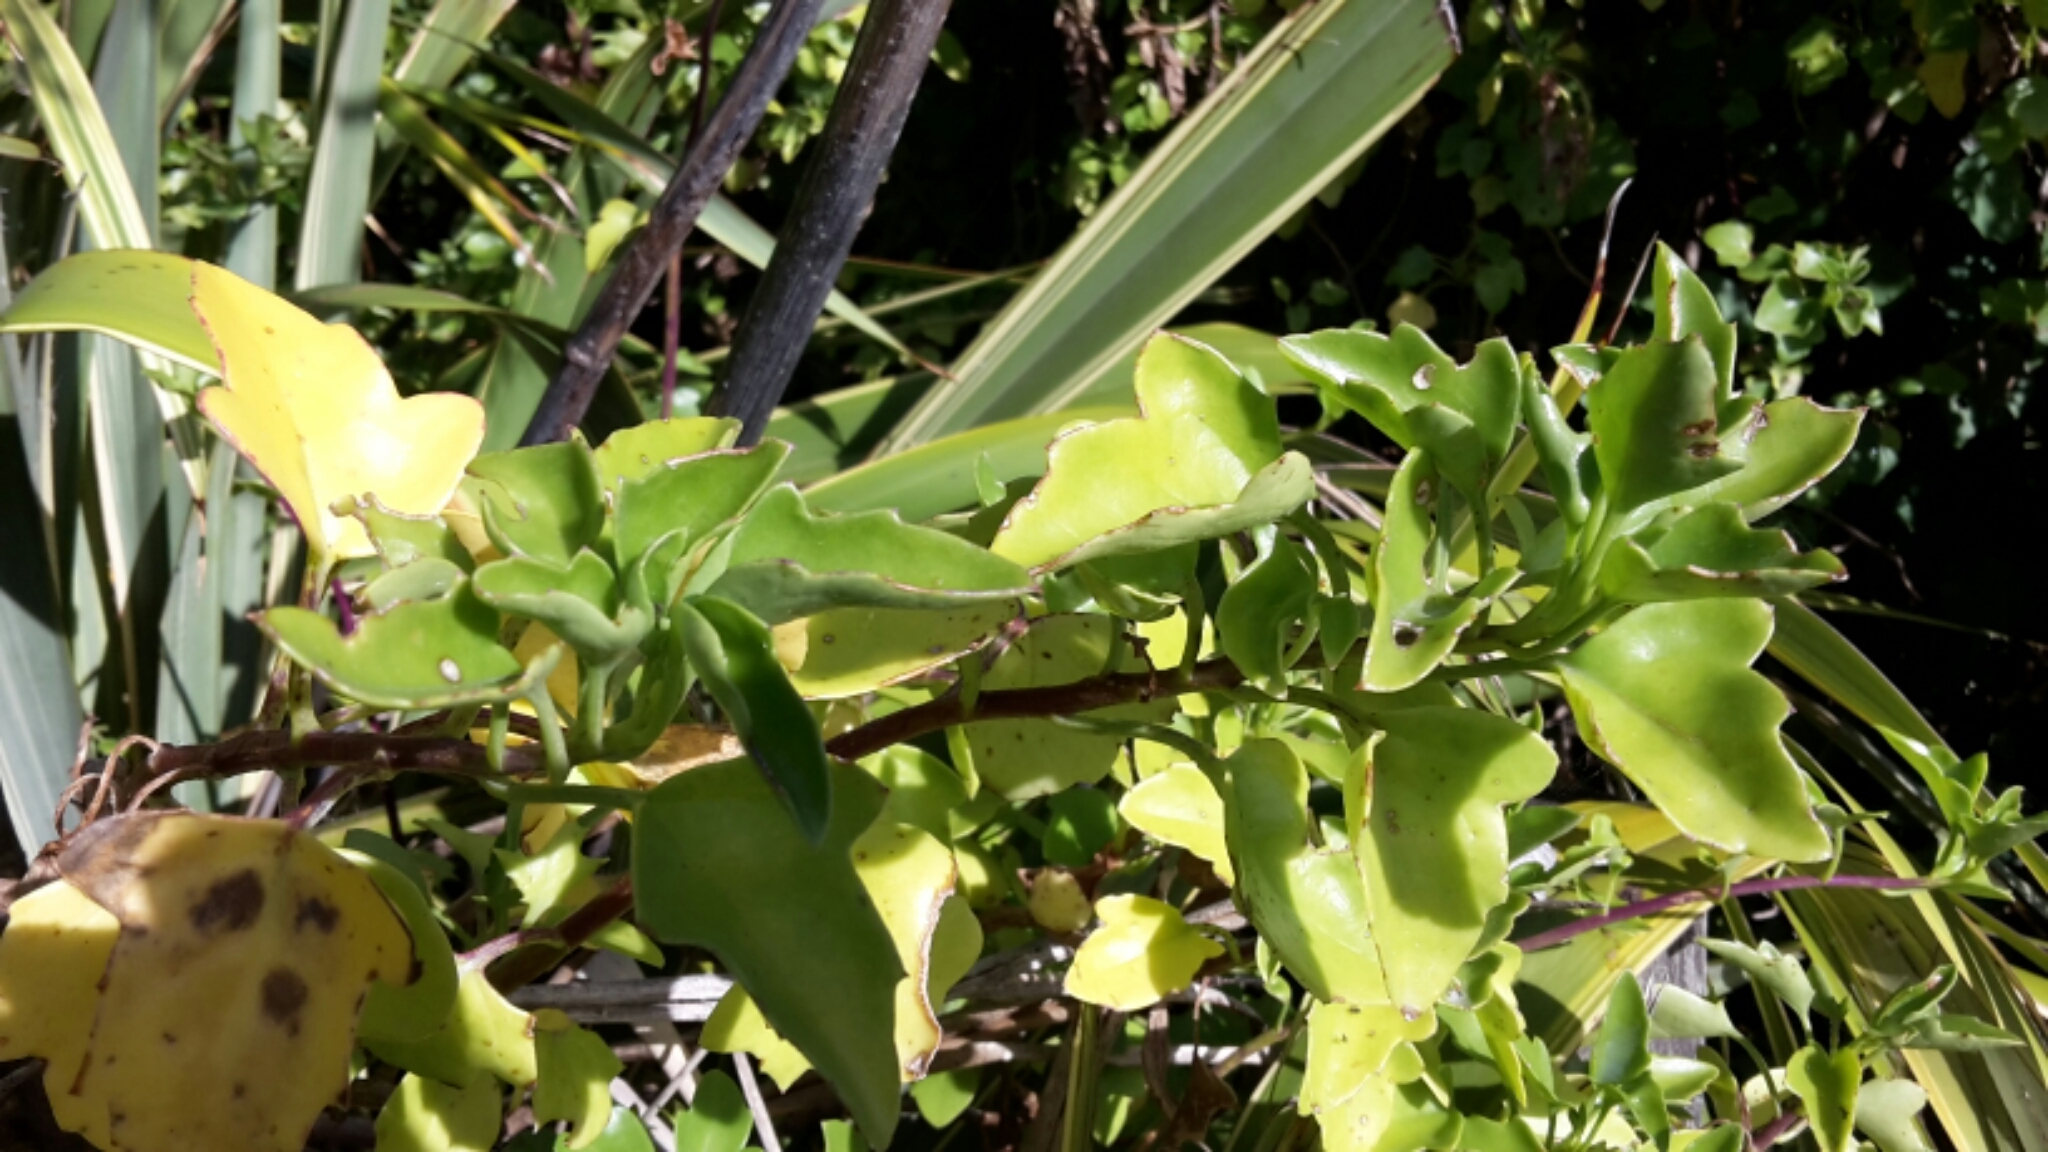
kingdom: Plantae
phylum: Tracheophyta
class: Magnoliopsida
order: Asterales
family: Asteraceae
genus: Senecio
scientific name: Senecio angulatus
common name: Climbing groundsel
